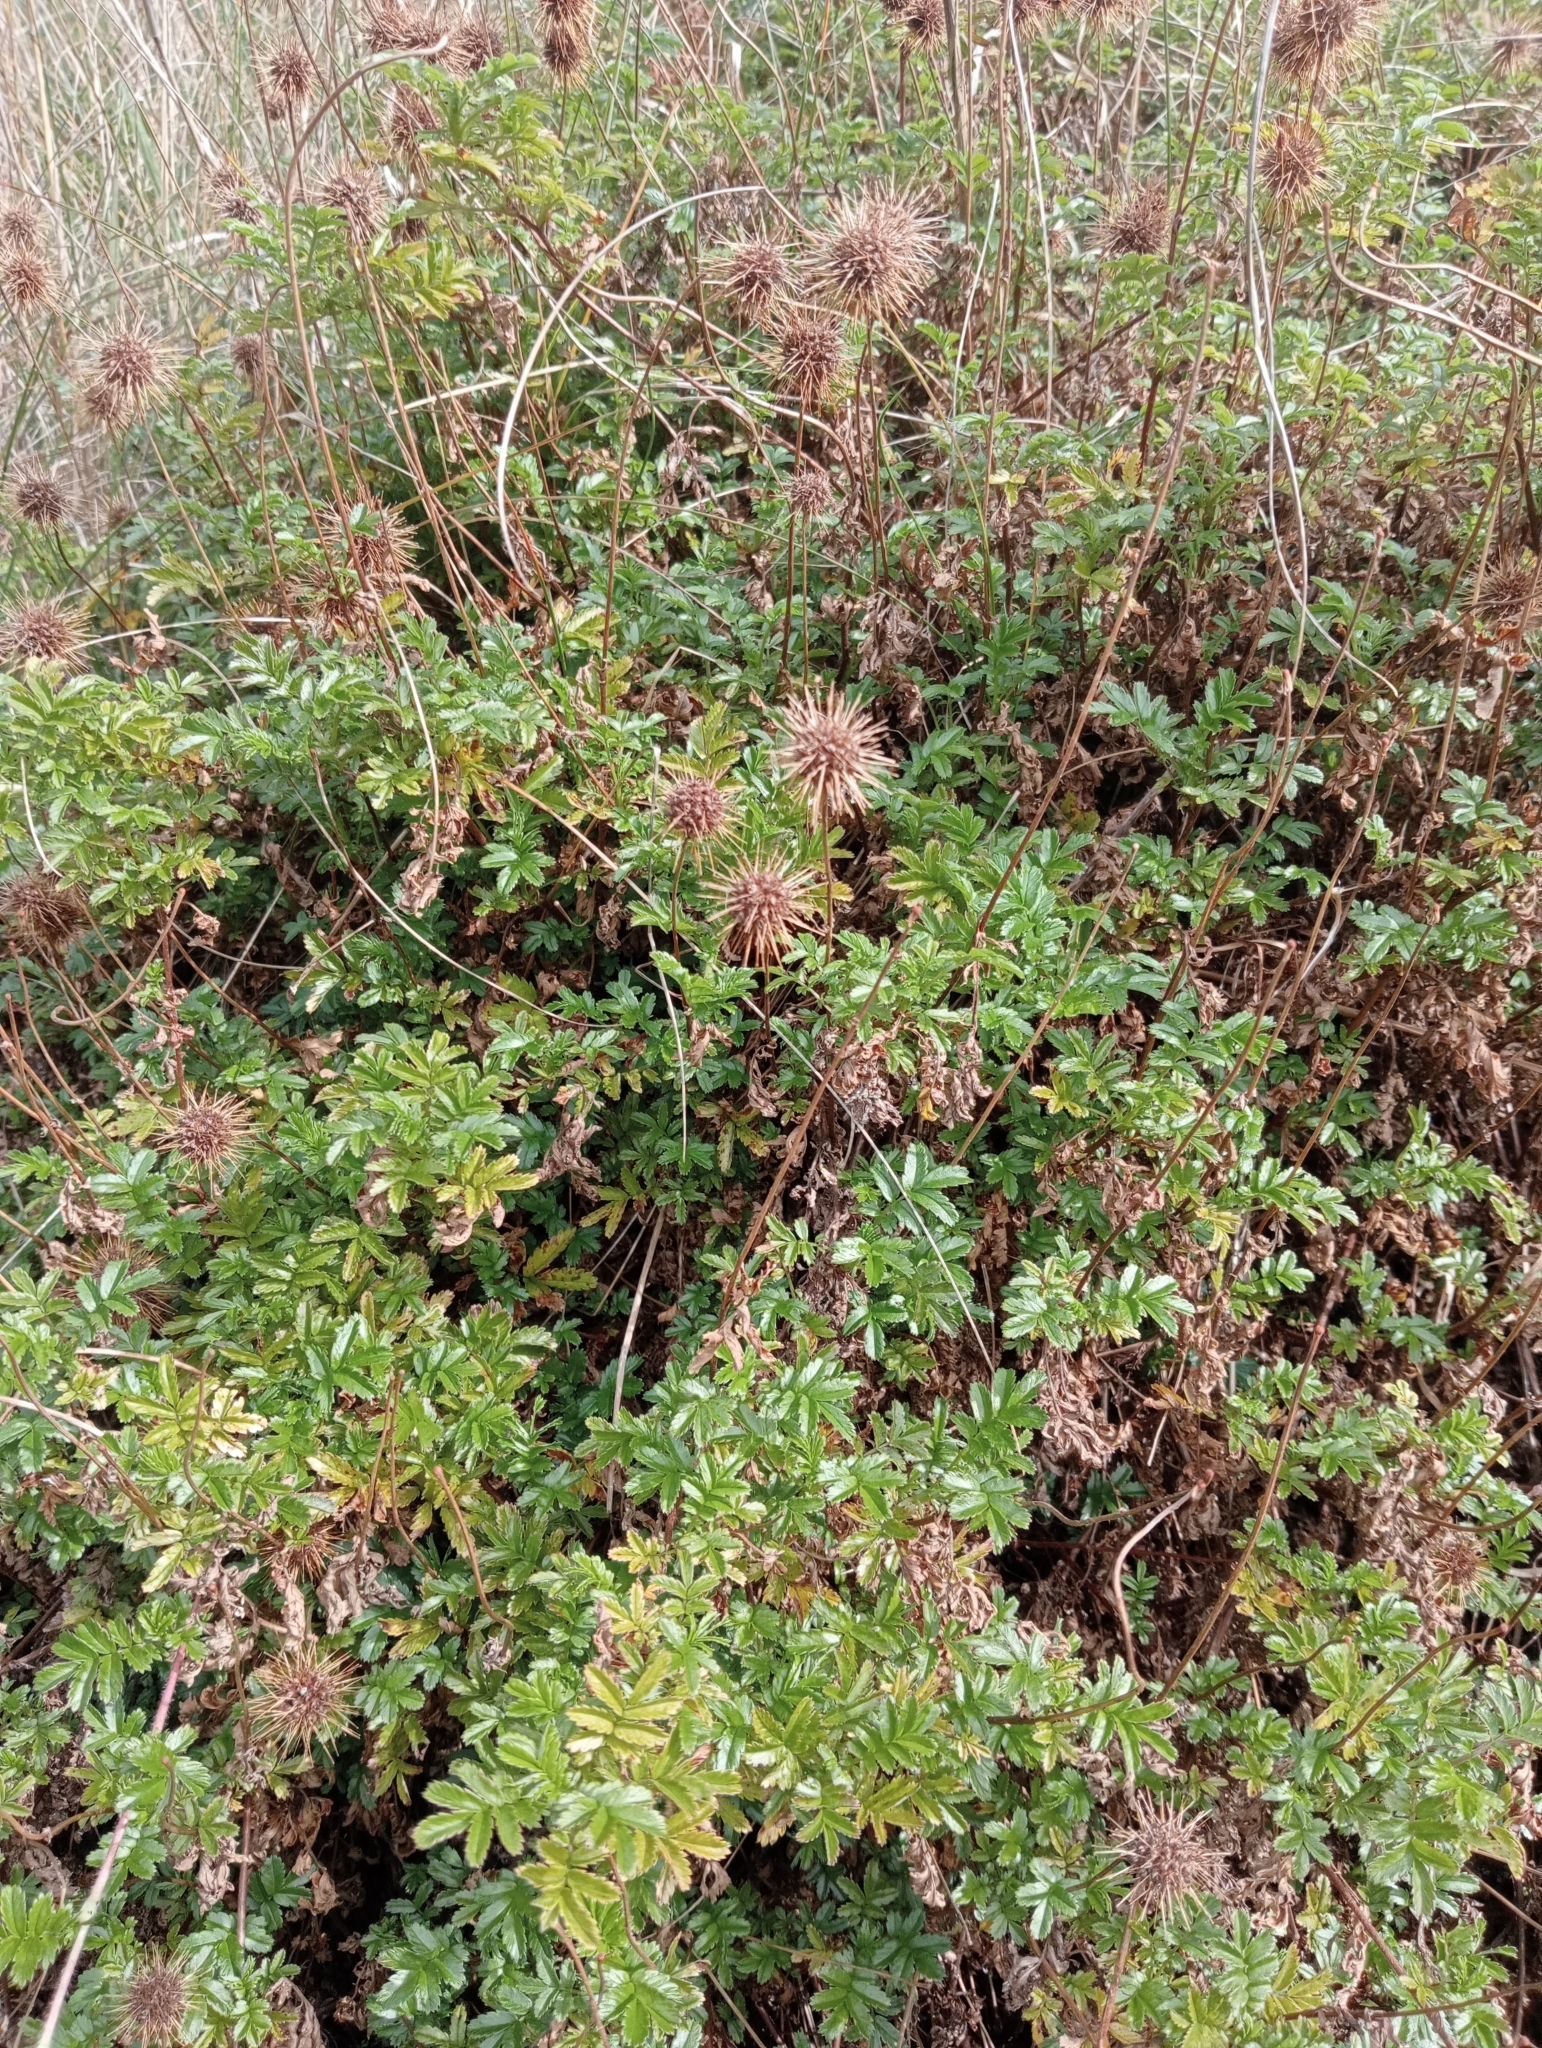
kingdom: Plantae
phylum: Tracheophyta
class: Magnoliopsida
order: Rosales
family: Rosaceae
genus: Acaena
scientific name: Acaena novae-zelandiae
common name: Pirri-pirri-bur
